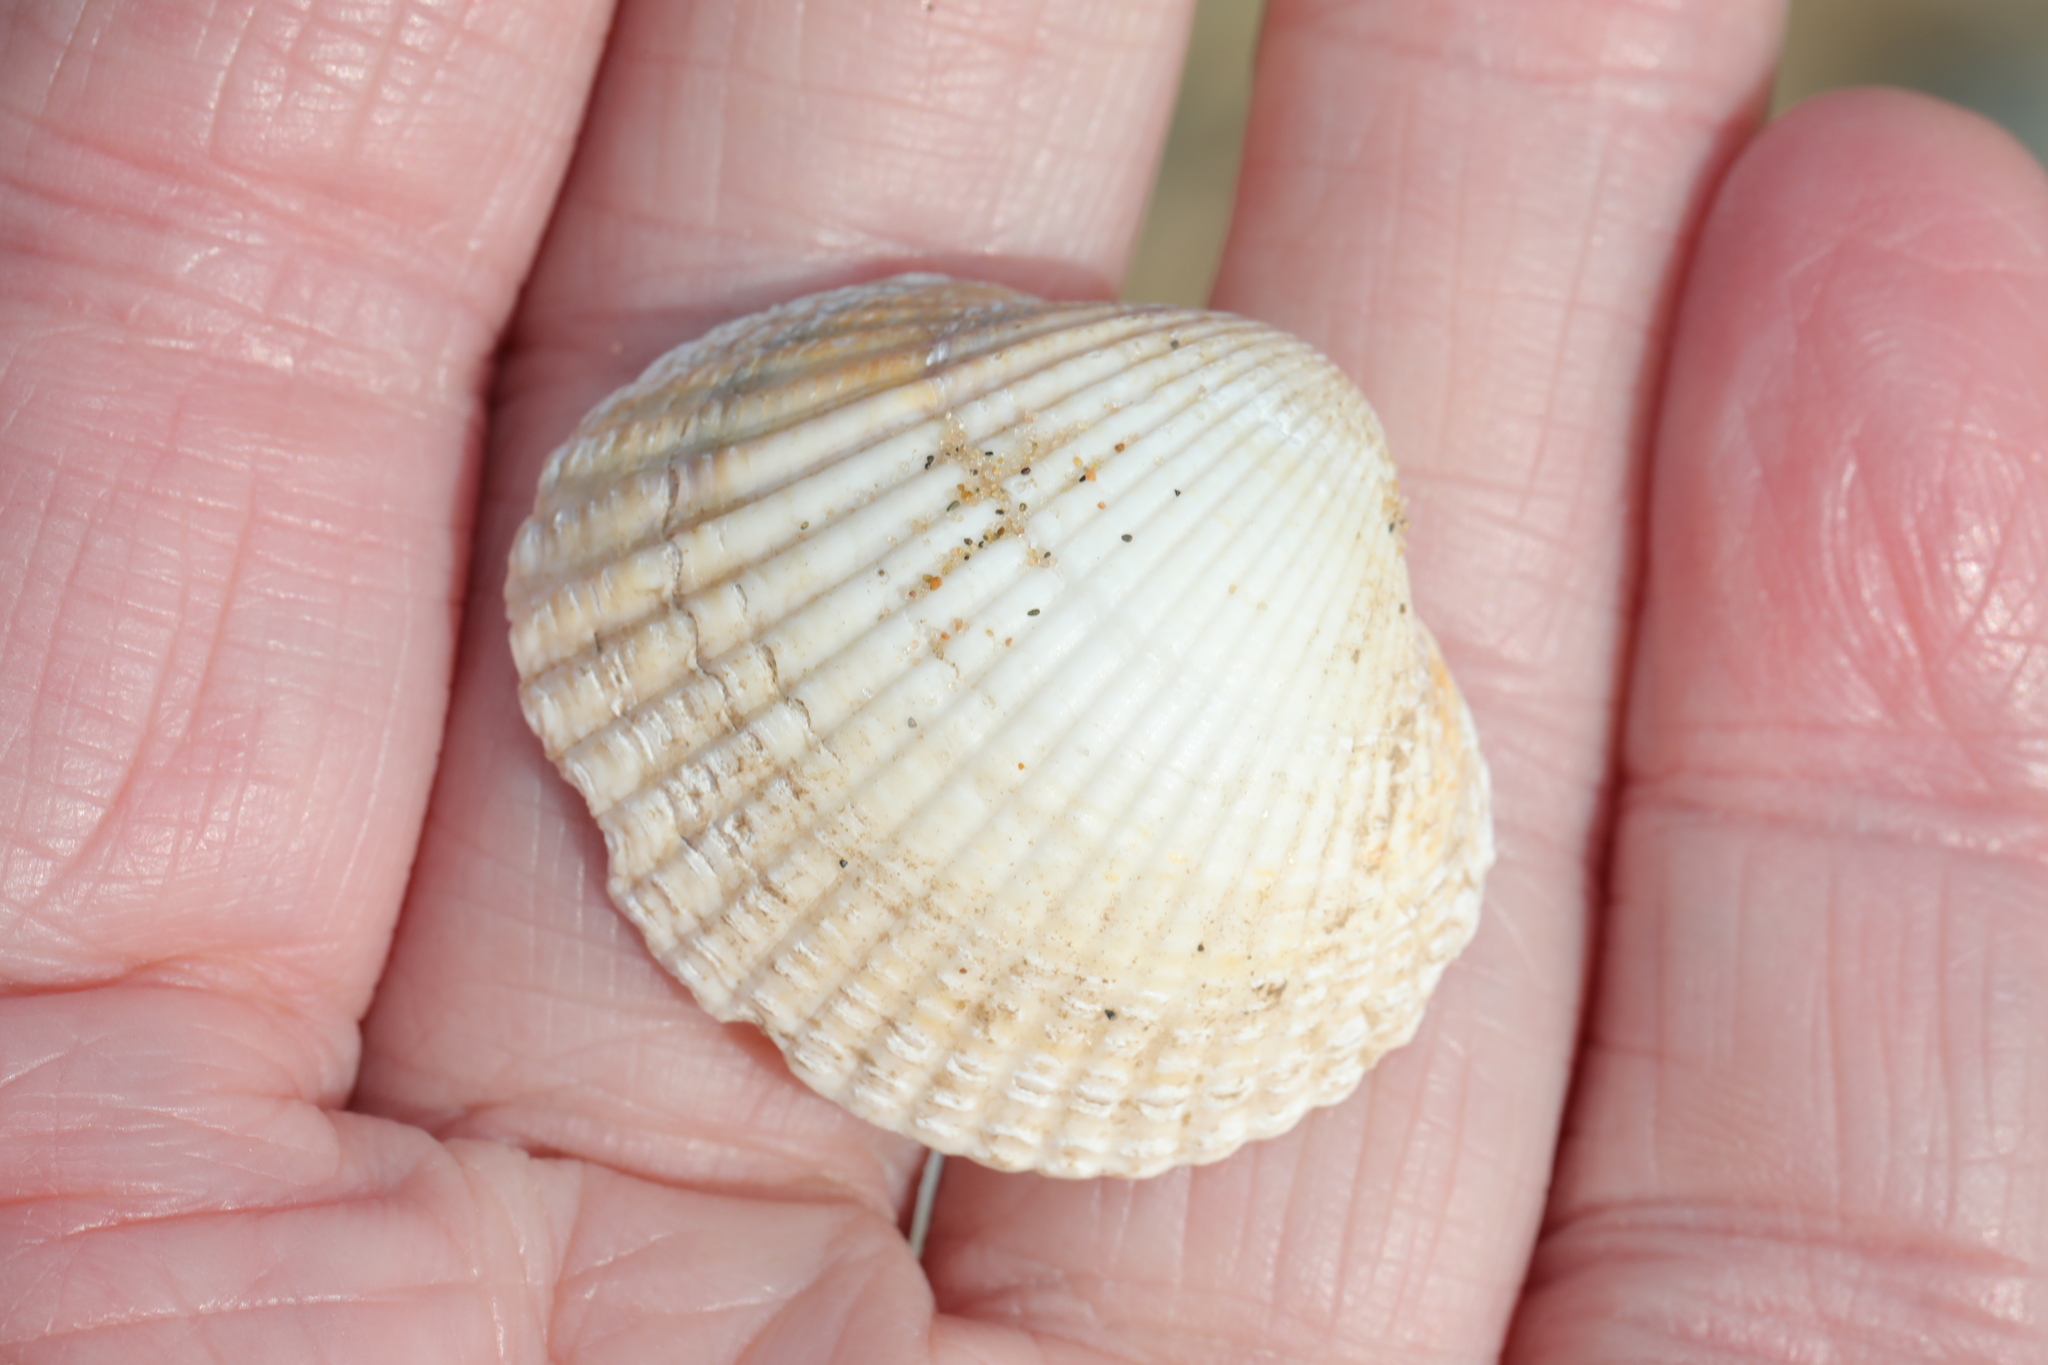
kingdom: Animalia
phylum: Mollusca
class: Bivalvia
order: Cardiida
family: Cardiidae
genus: Cerastoderma
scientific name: Cerastoderma edule
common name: Common cockle
